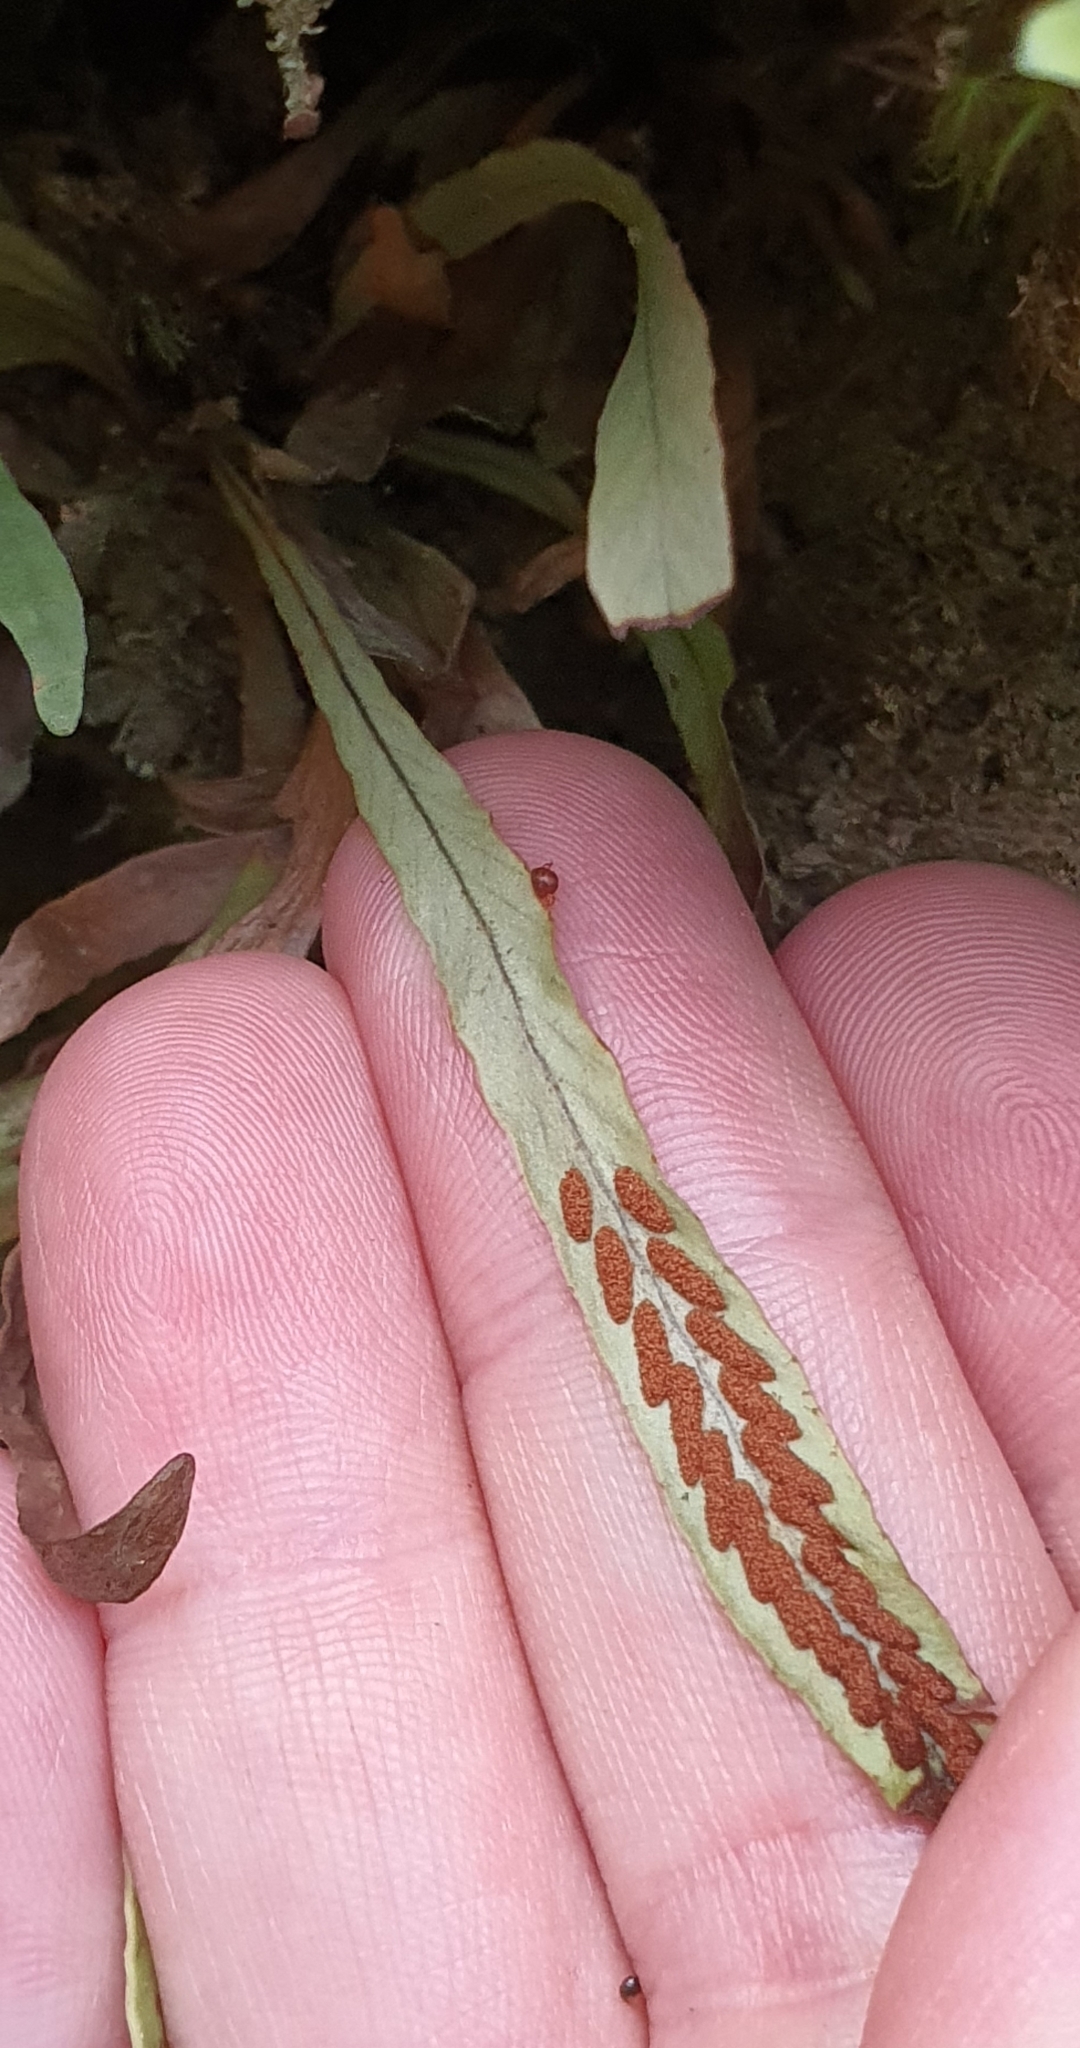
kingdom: Plantae
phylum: Tracheophyta
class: Polypodiopsida
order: Polypodiales
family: Polypodiaceae
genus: Notogrammitis
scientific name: Notogrammitis billardierei
